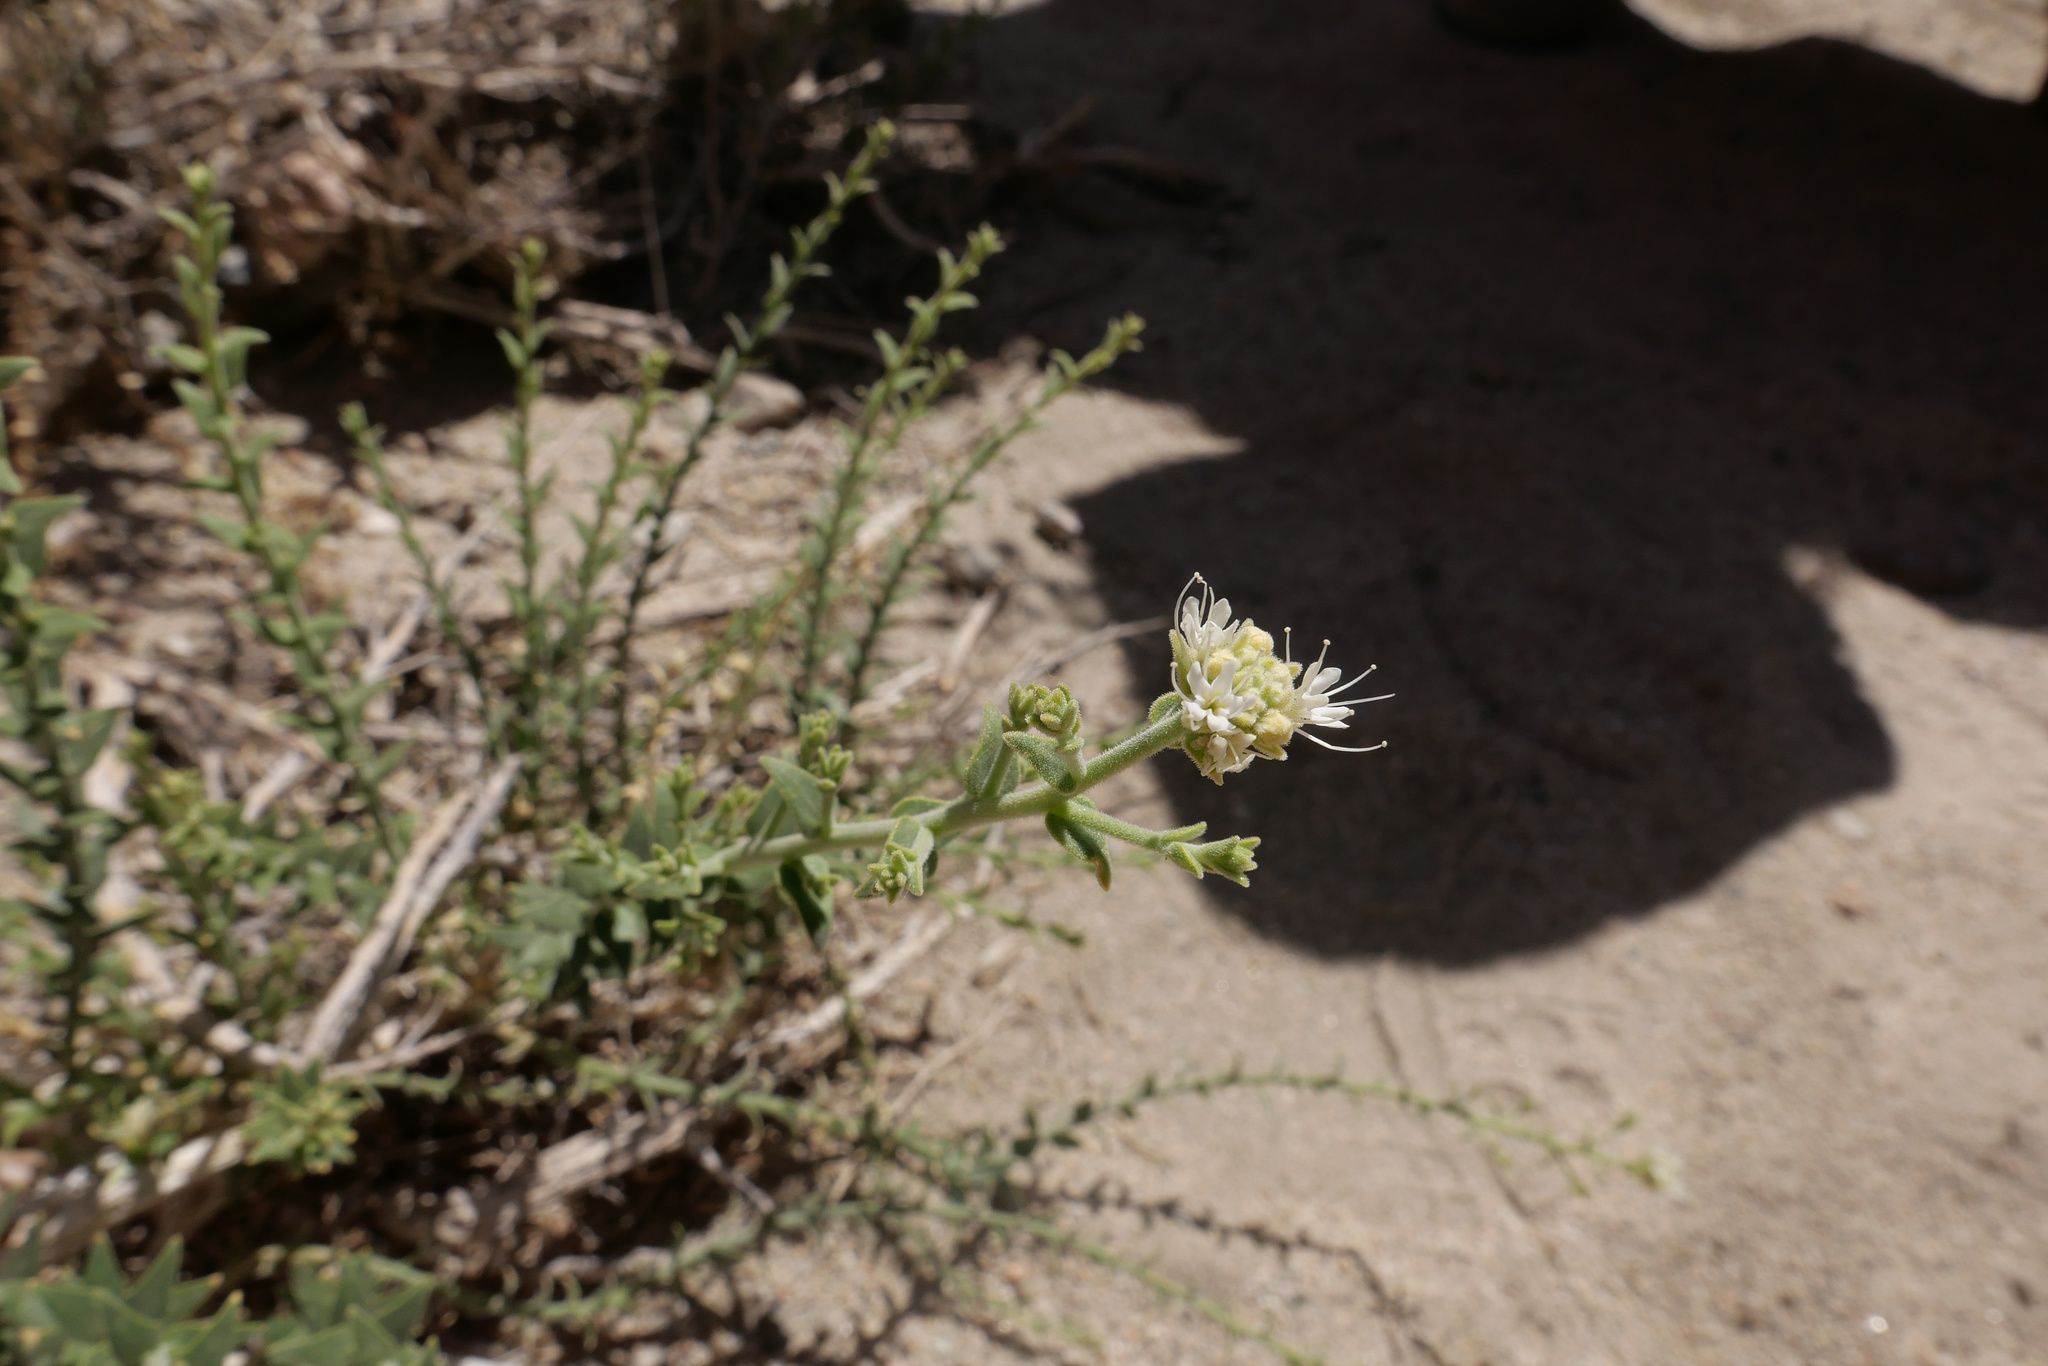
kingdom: Plantae
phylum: Tracheophyta
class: Magnoliopsida
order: Cornales
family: Loasaceae
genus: Petalonyx
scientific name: Petalonyx thurberi
